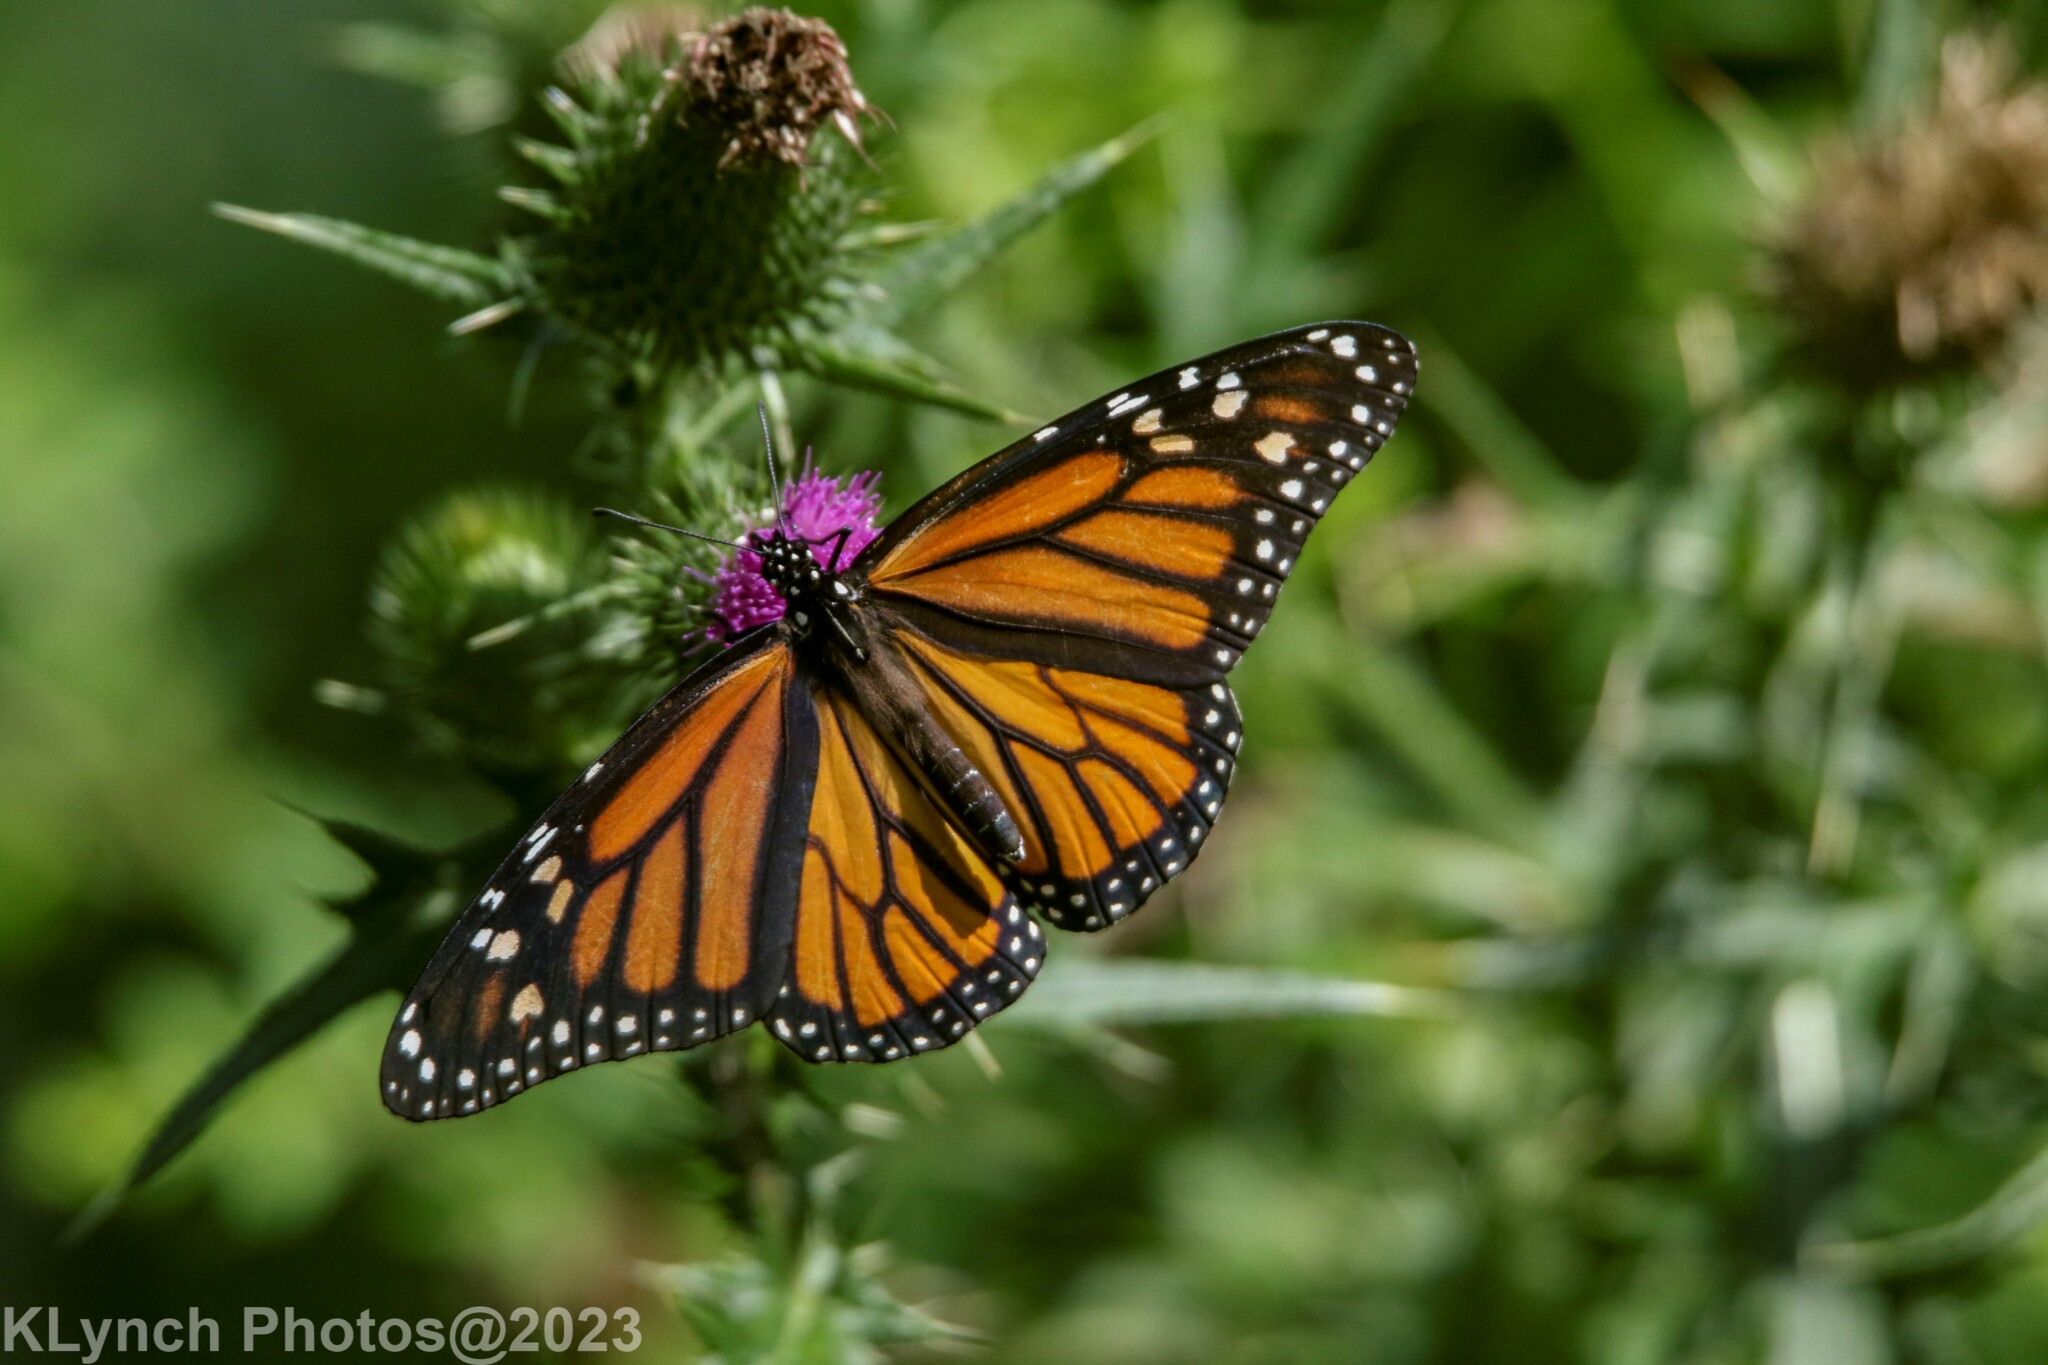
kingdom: Animalia
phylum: Arthropoda
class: Insecta
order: Lepidoptera
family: Nymphalidae
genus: Danaus
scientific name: Danaus plexippus
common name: Monarch
